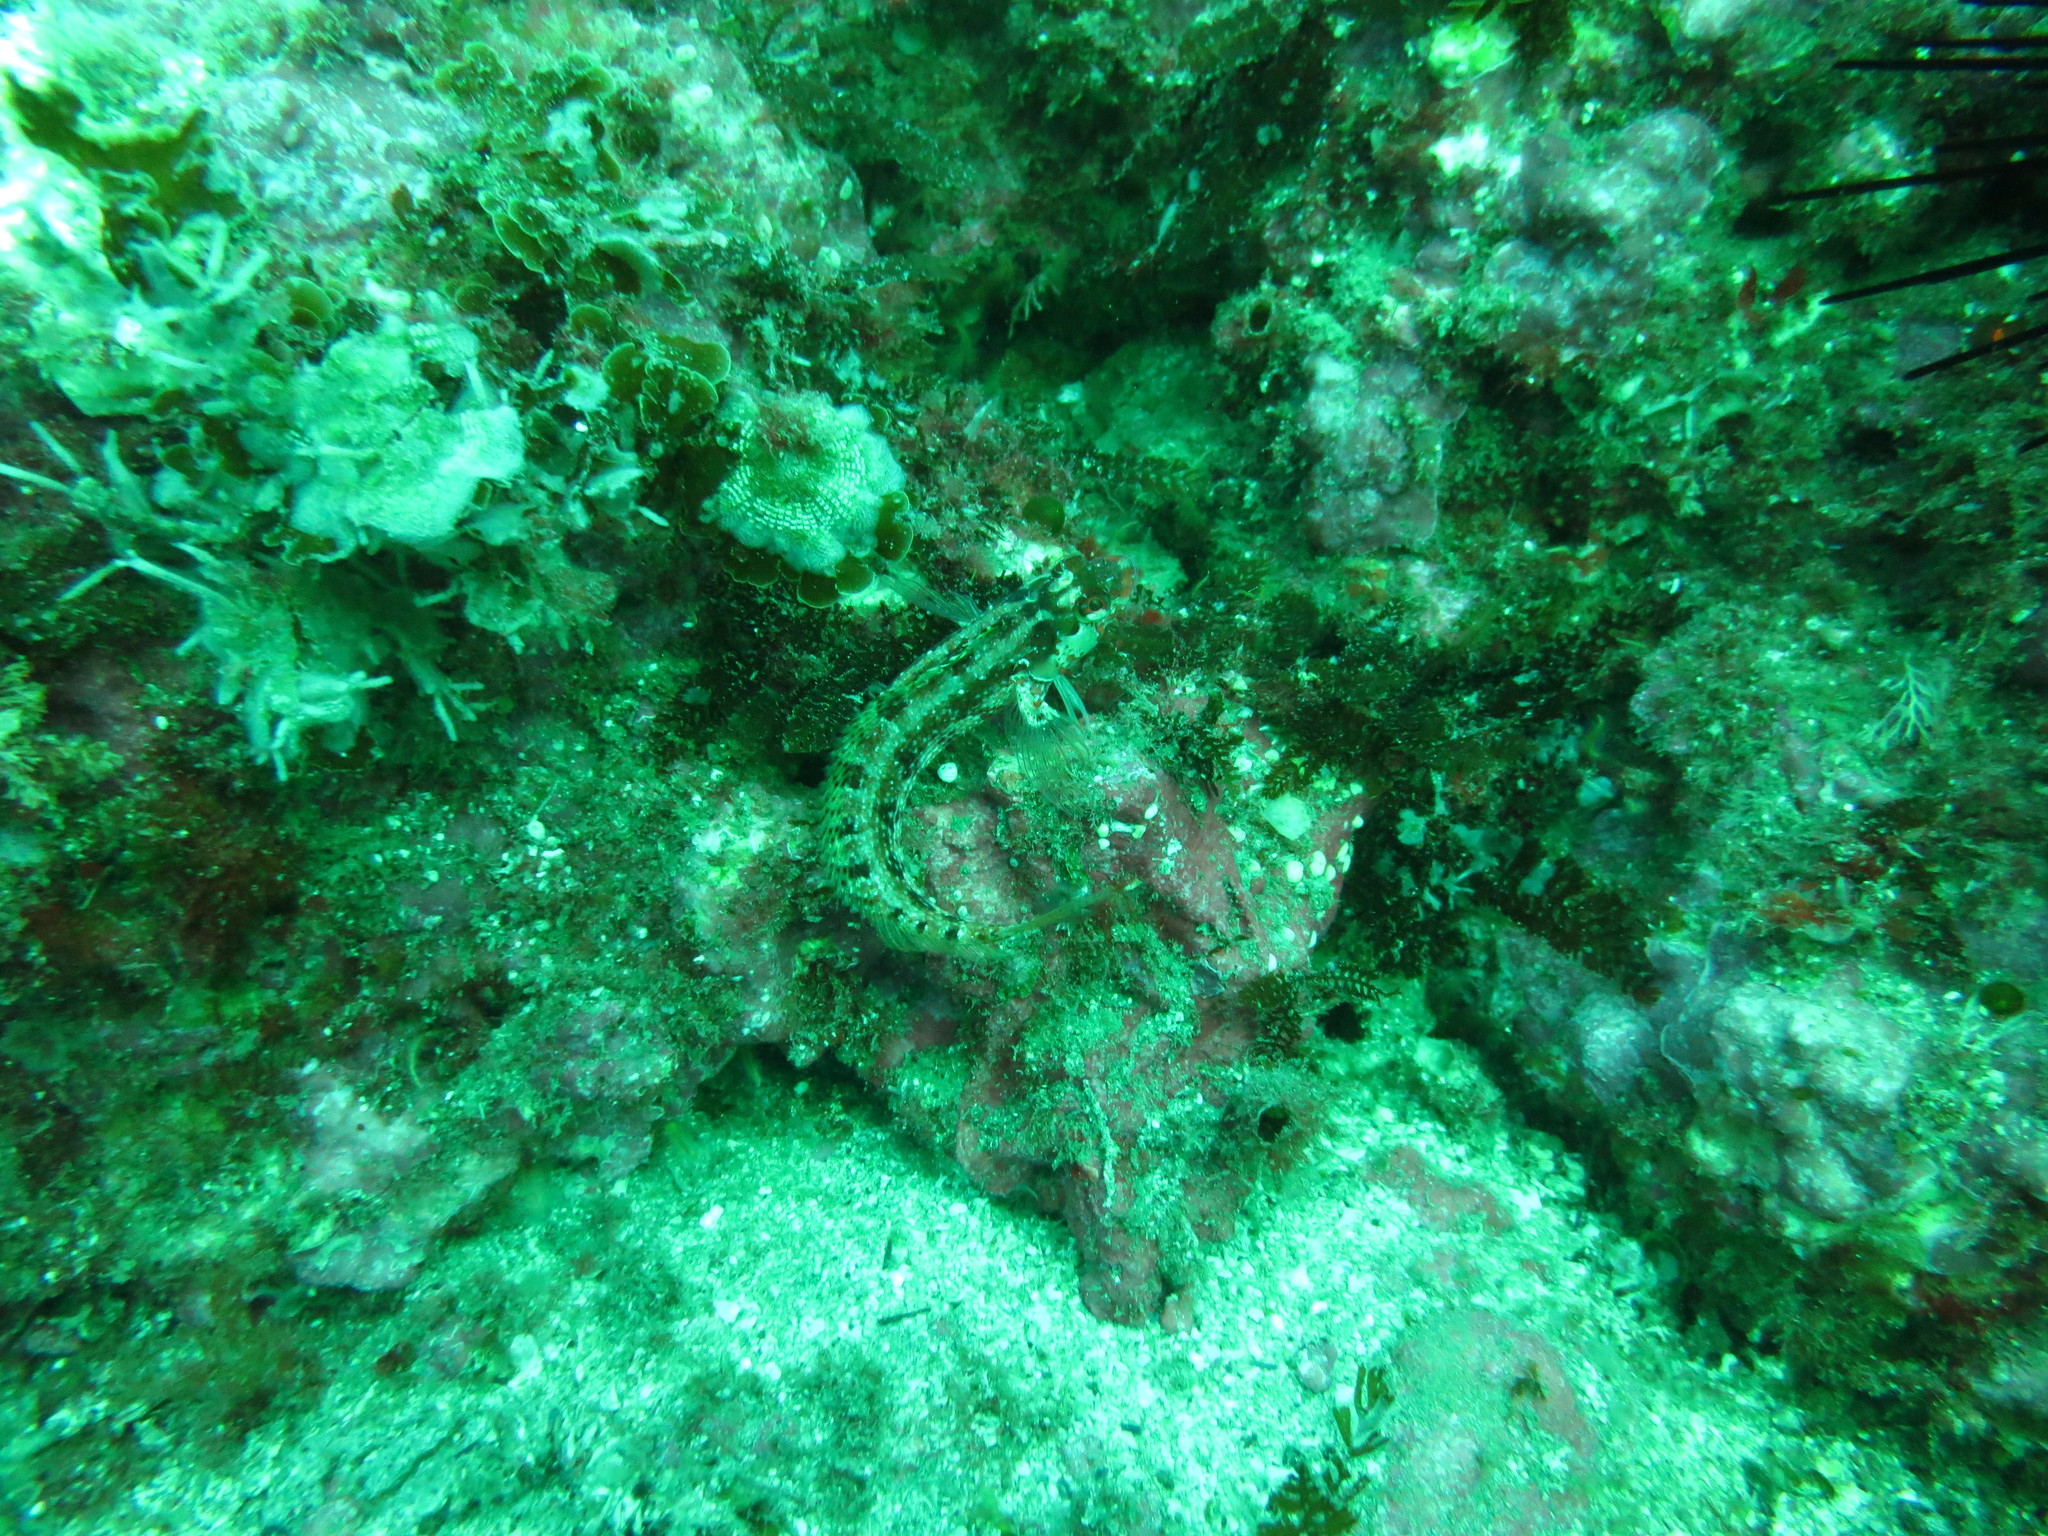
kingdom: Animalia
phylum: Chordata
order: Perciformes
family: Labrisomidae
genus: Alloclinus
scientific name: Alloclinus holderi
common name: Island kelpfish
